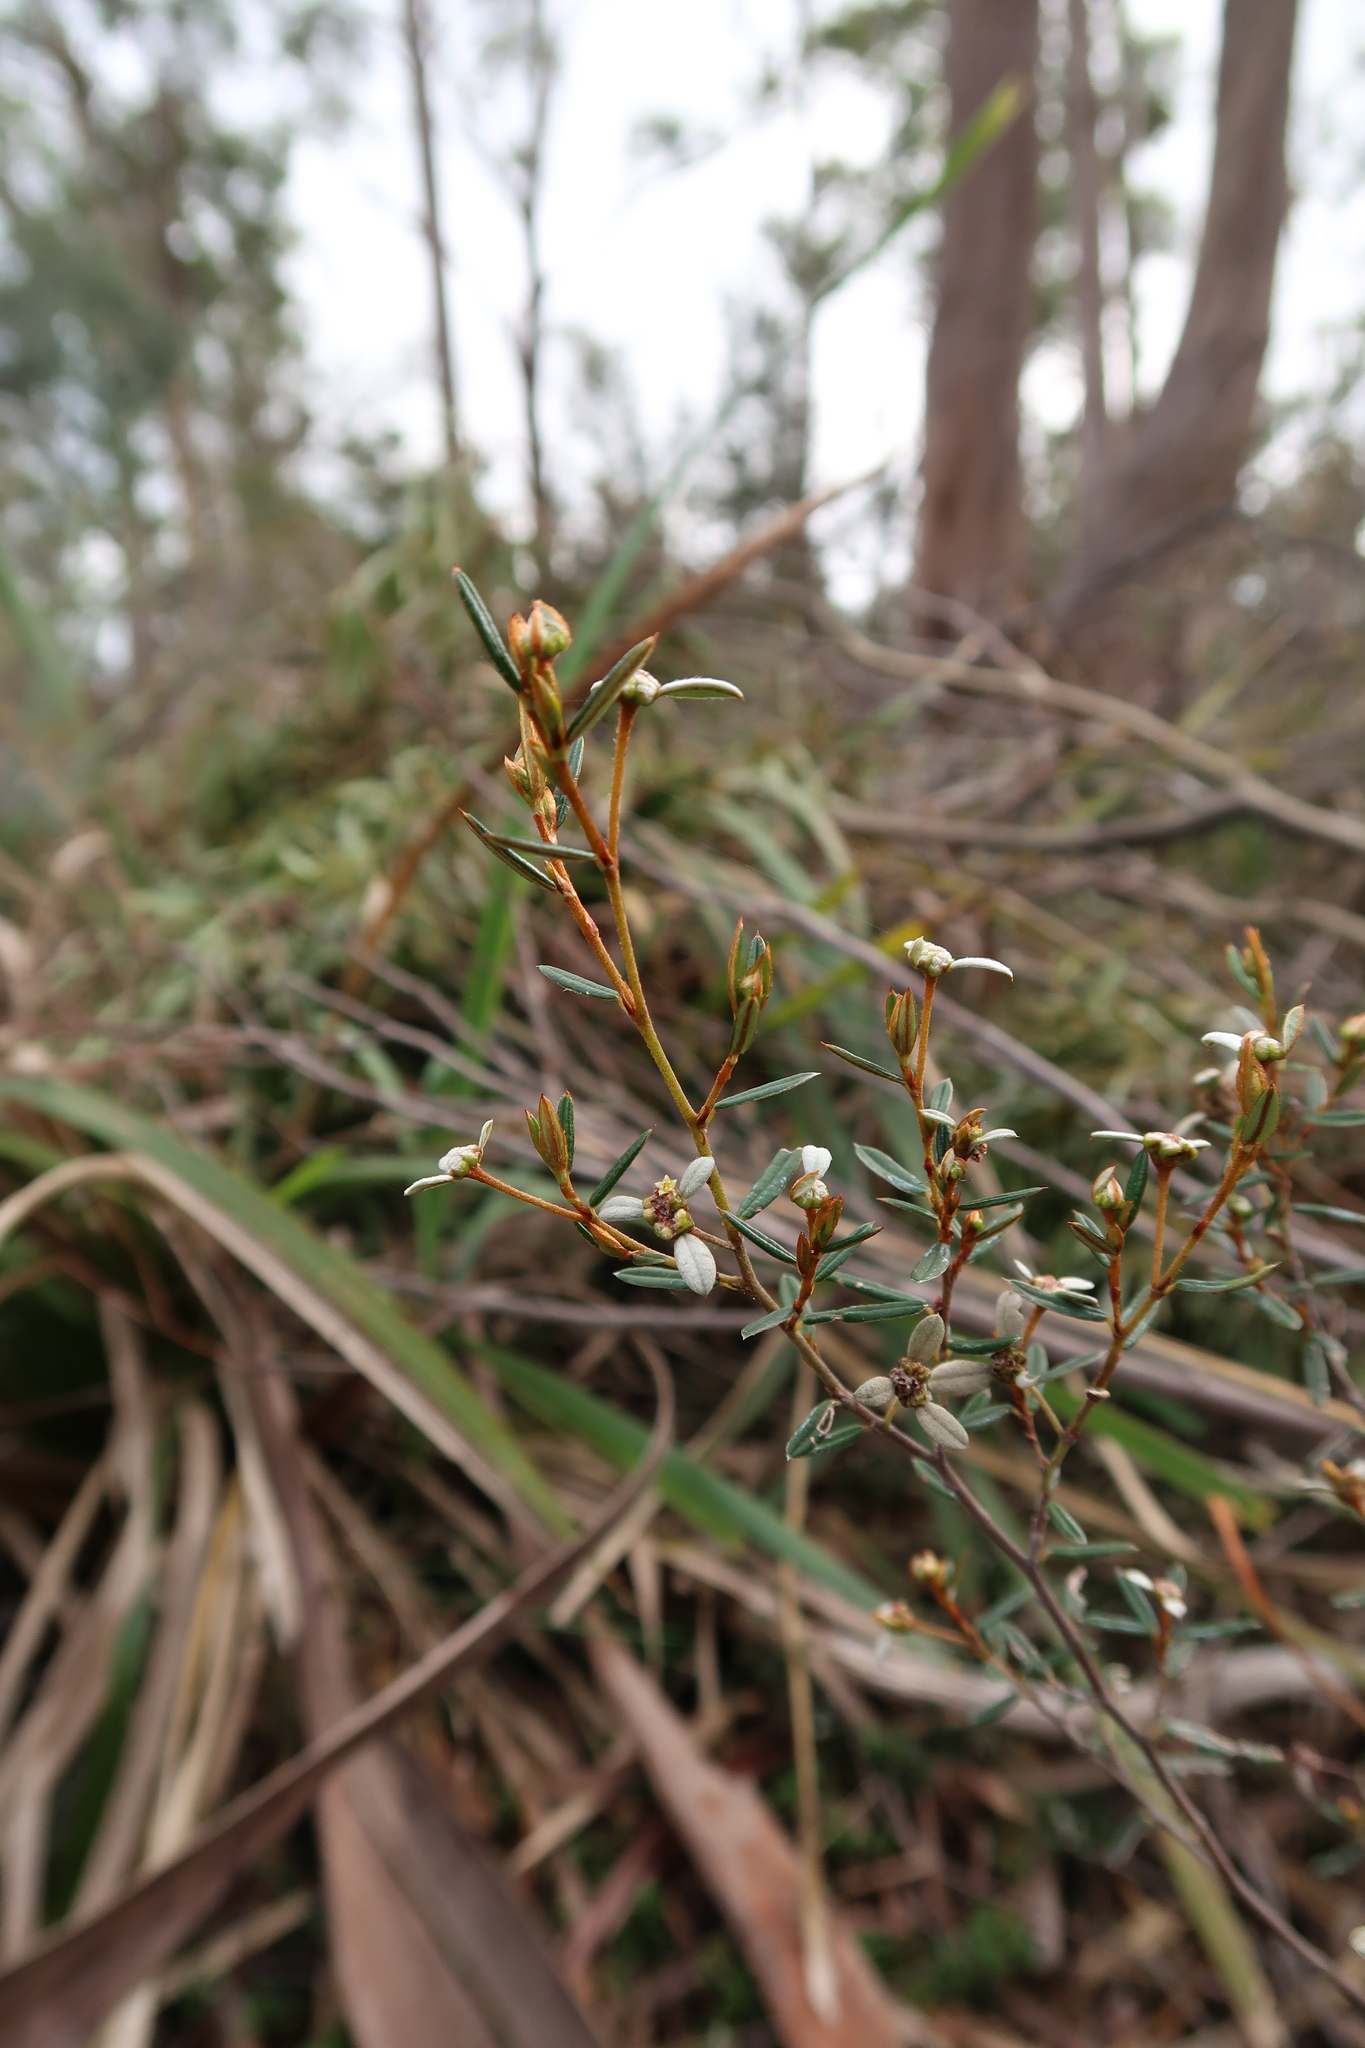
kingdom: Plantae
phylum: Tracheophyta
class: Magnoliopsida
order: Rosales
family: Rhamnaceae
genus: Spyridium
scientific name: Spyridium vexilliferum
